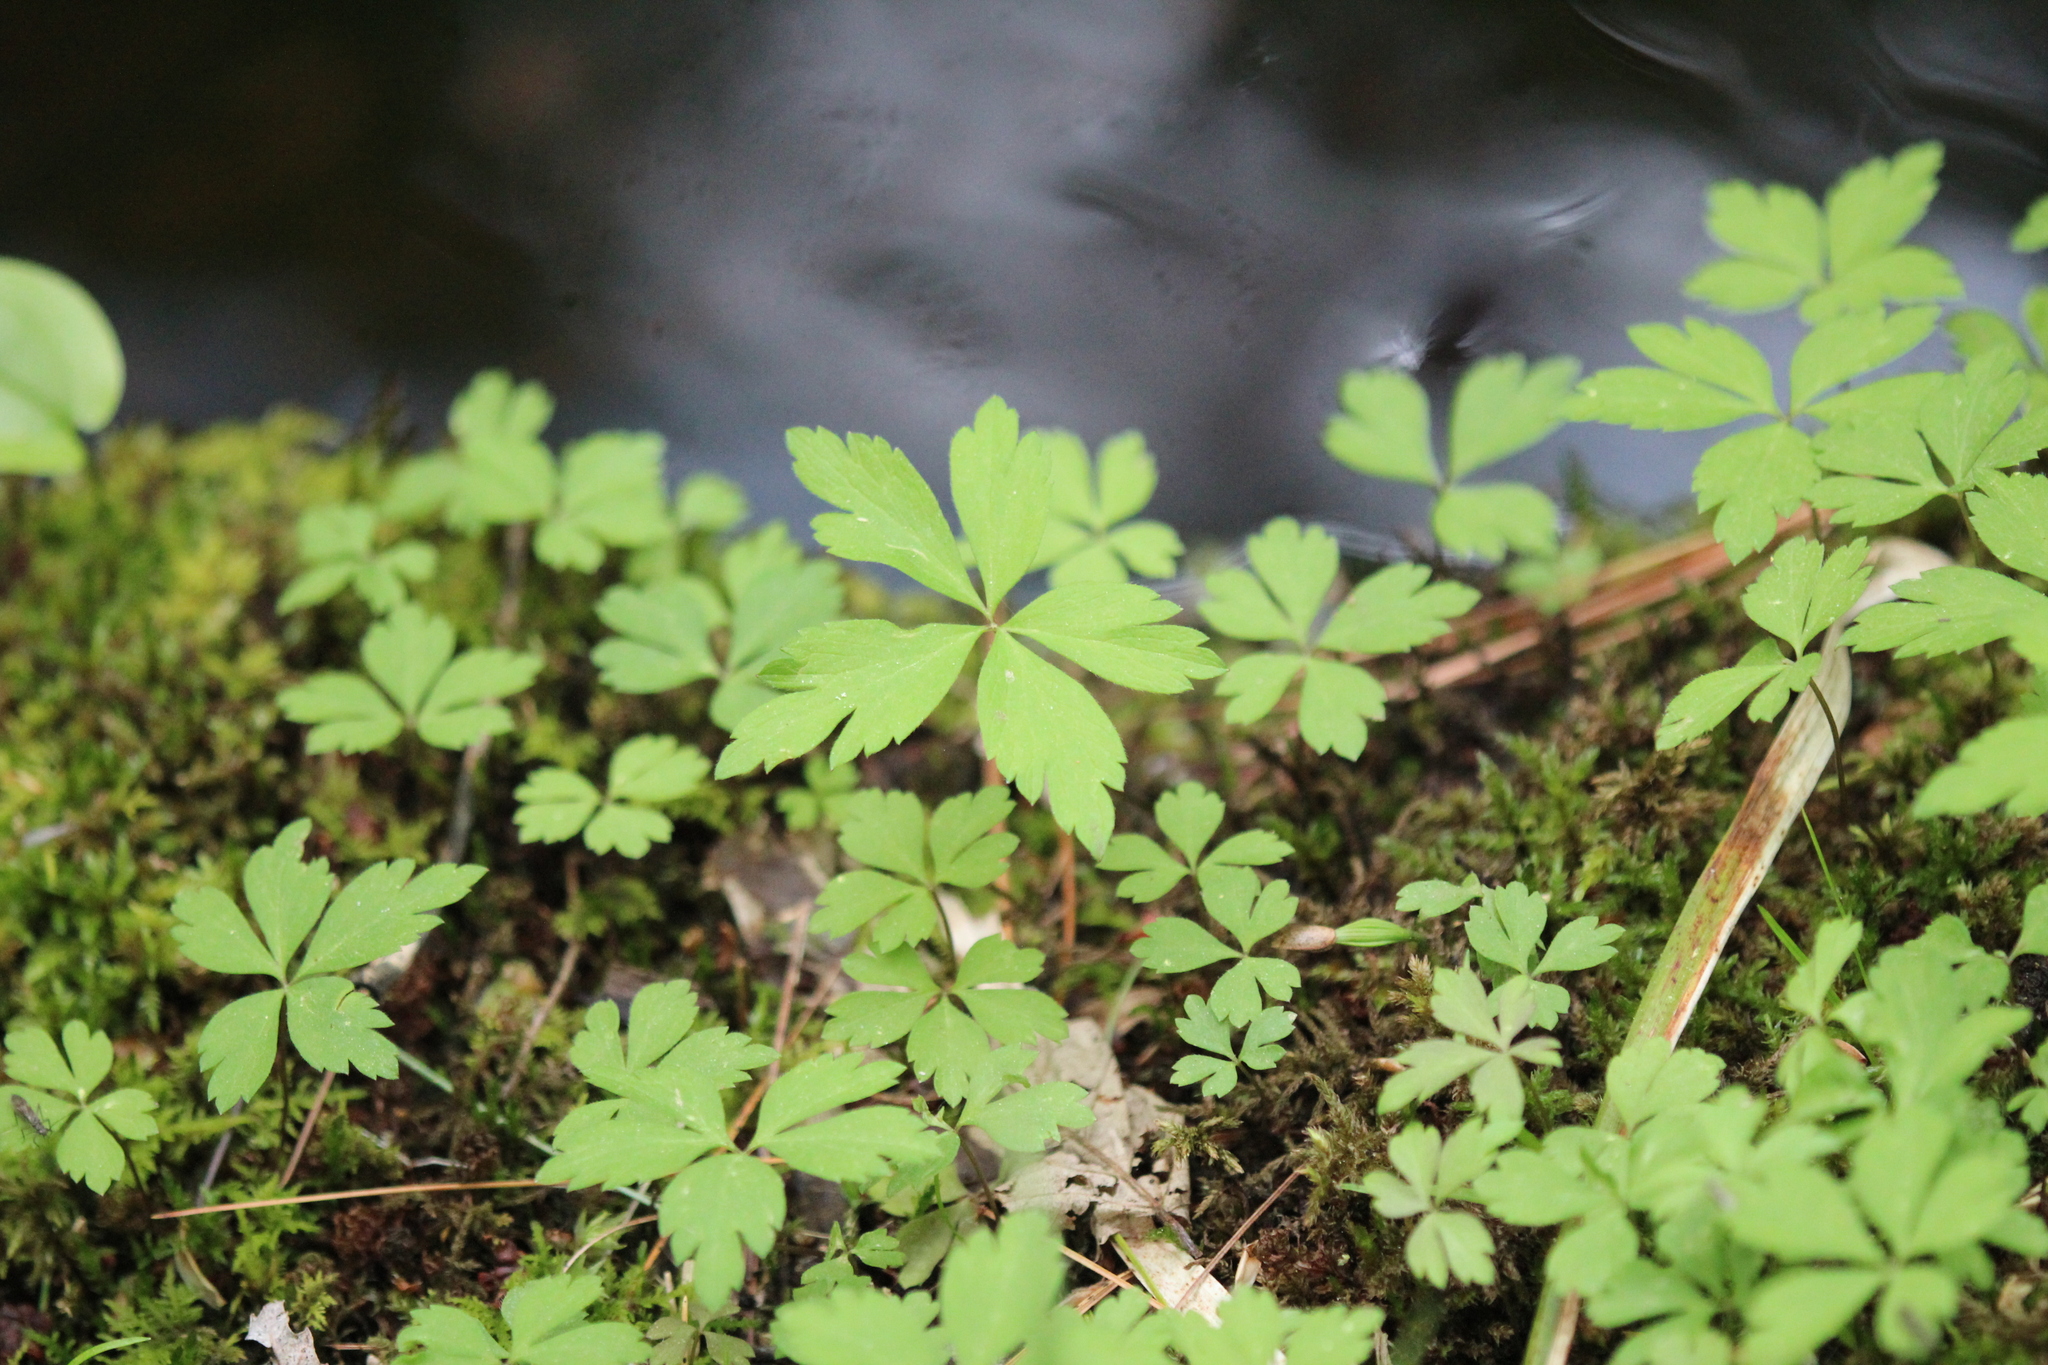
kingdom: Plantae
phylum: Tracheophyta
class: Magnoliopsida
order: Ranunculales
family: Ranunculaceae
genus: Anemone
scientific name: Anemone quinquefolia
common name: Wood anemone
